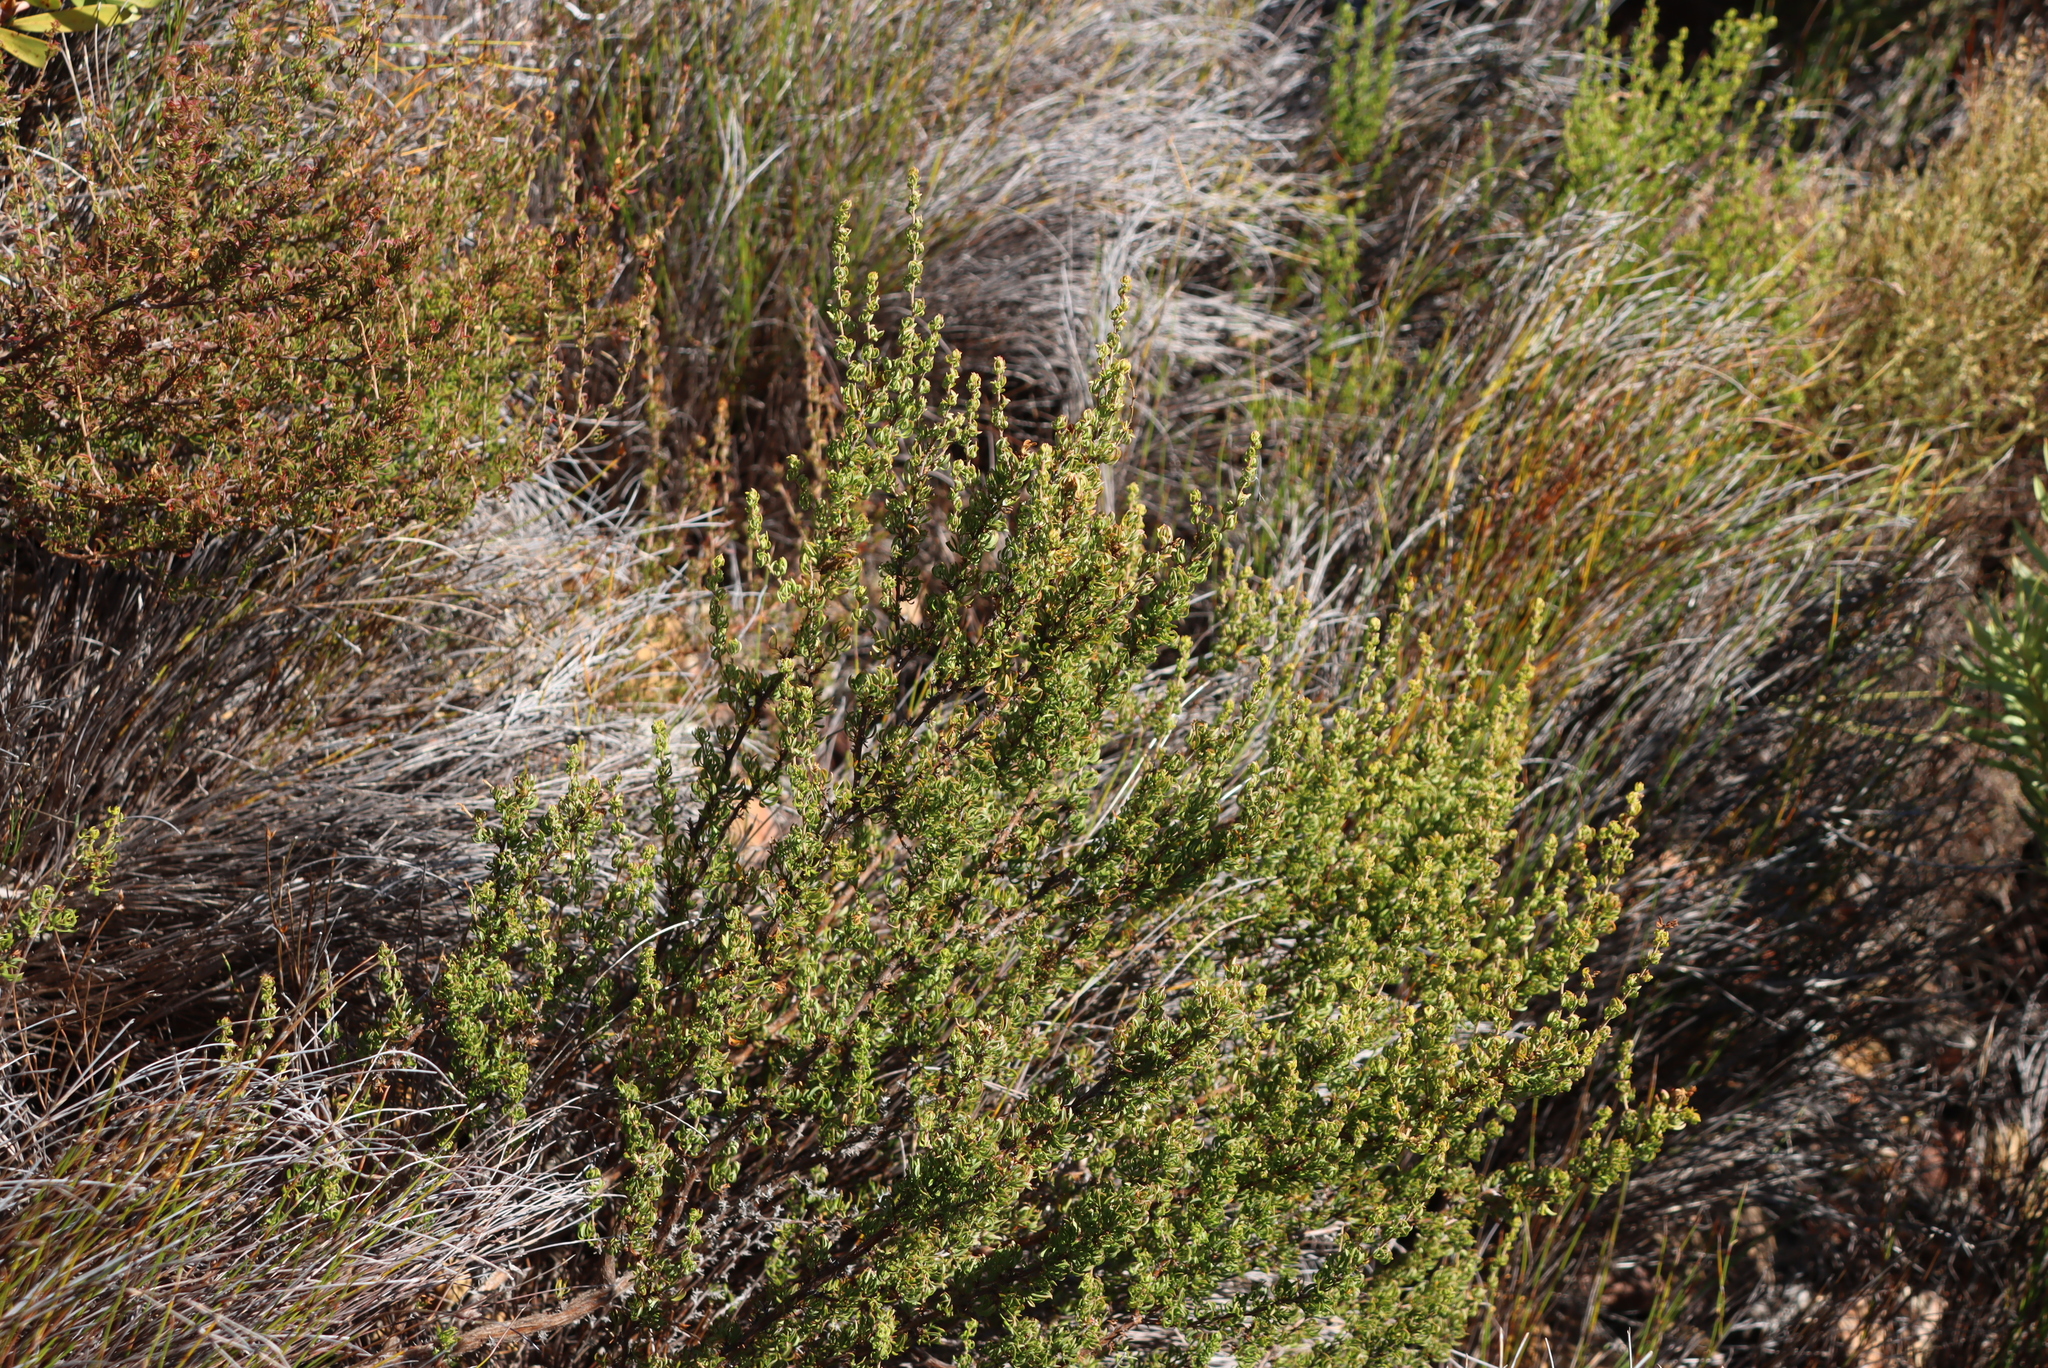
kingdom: Plantae
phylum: Tracheophyta
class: Magnoliopsida
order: Rosales
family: Rosaceae
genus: Cliffortia
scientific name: Cliffortia falcata
